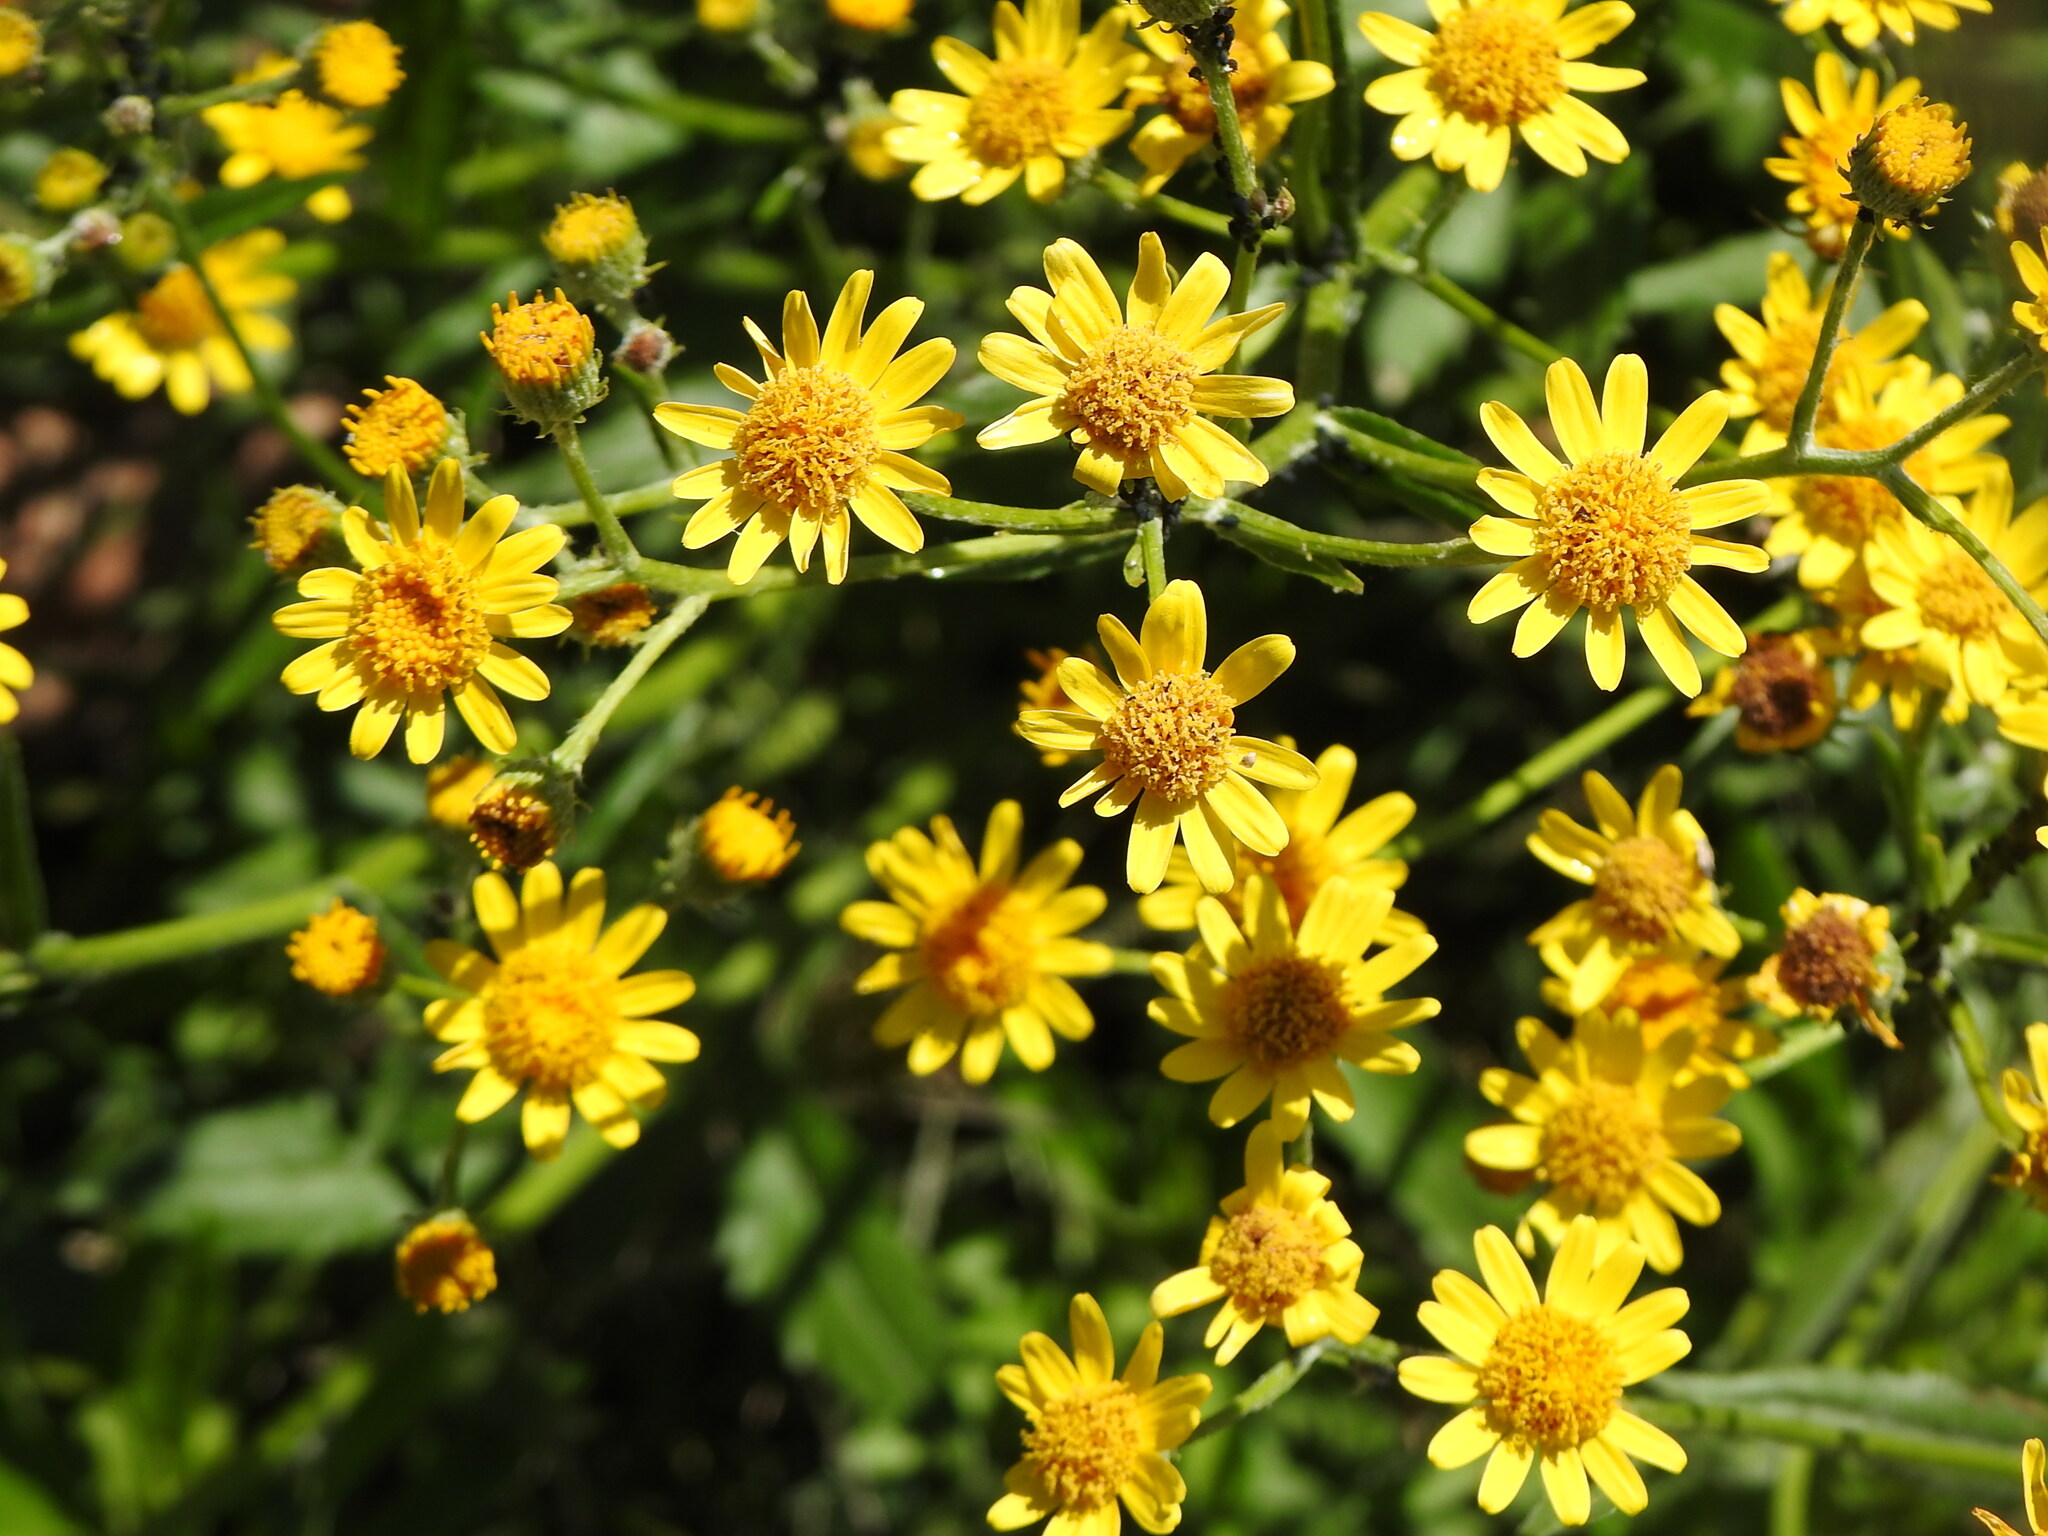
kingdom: Plantae
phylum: Tracheophyta
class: Magnoliopsida
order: Asterales
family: Asteraceae
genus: Senecio
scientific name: Senecio pterophorus
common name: Shoddy ragwort
